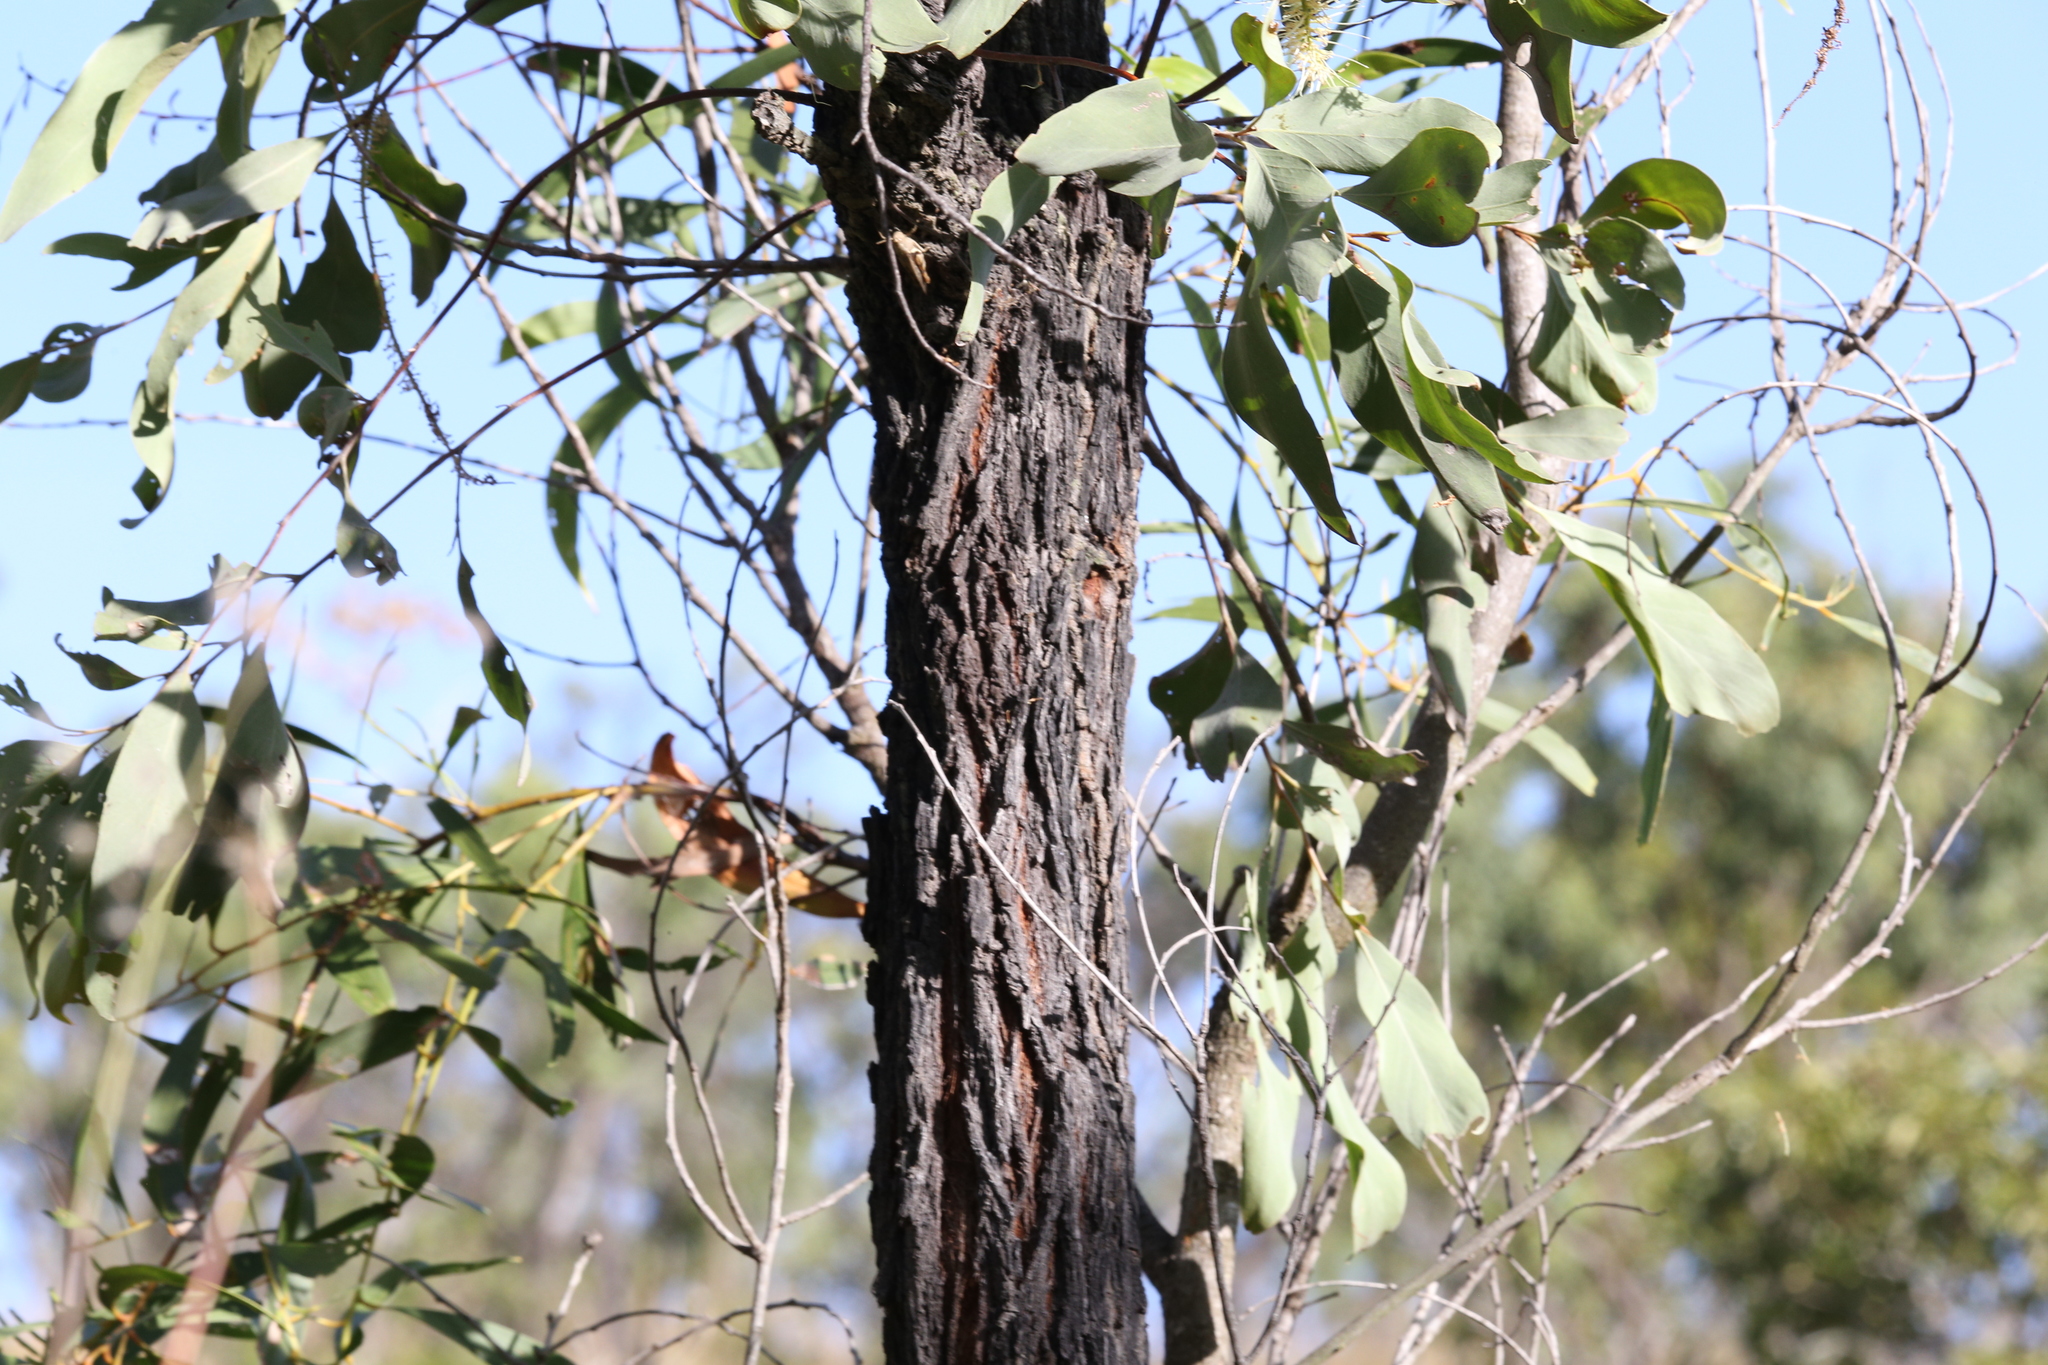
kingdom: Plantae
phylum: Tracheophyta
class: Magnoliopsida
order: Proteales
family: Proteaceae
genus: Grevillea
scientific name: Grevillea glauca
